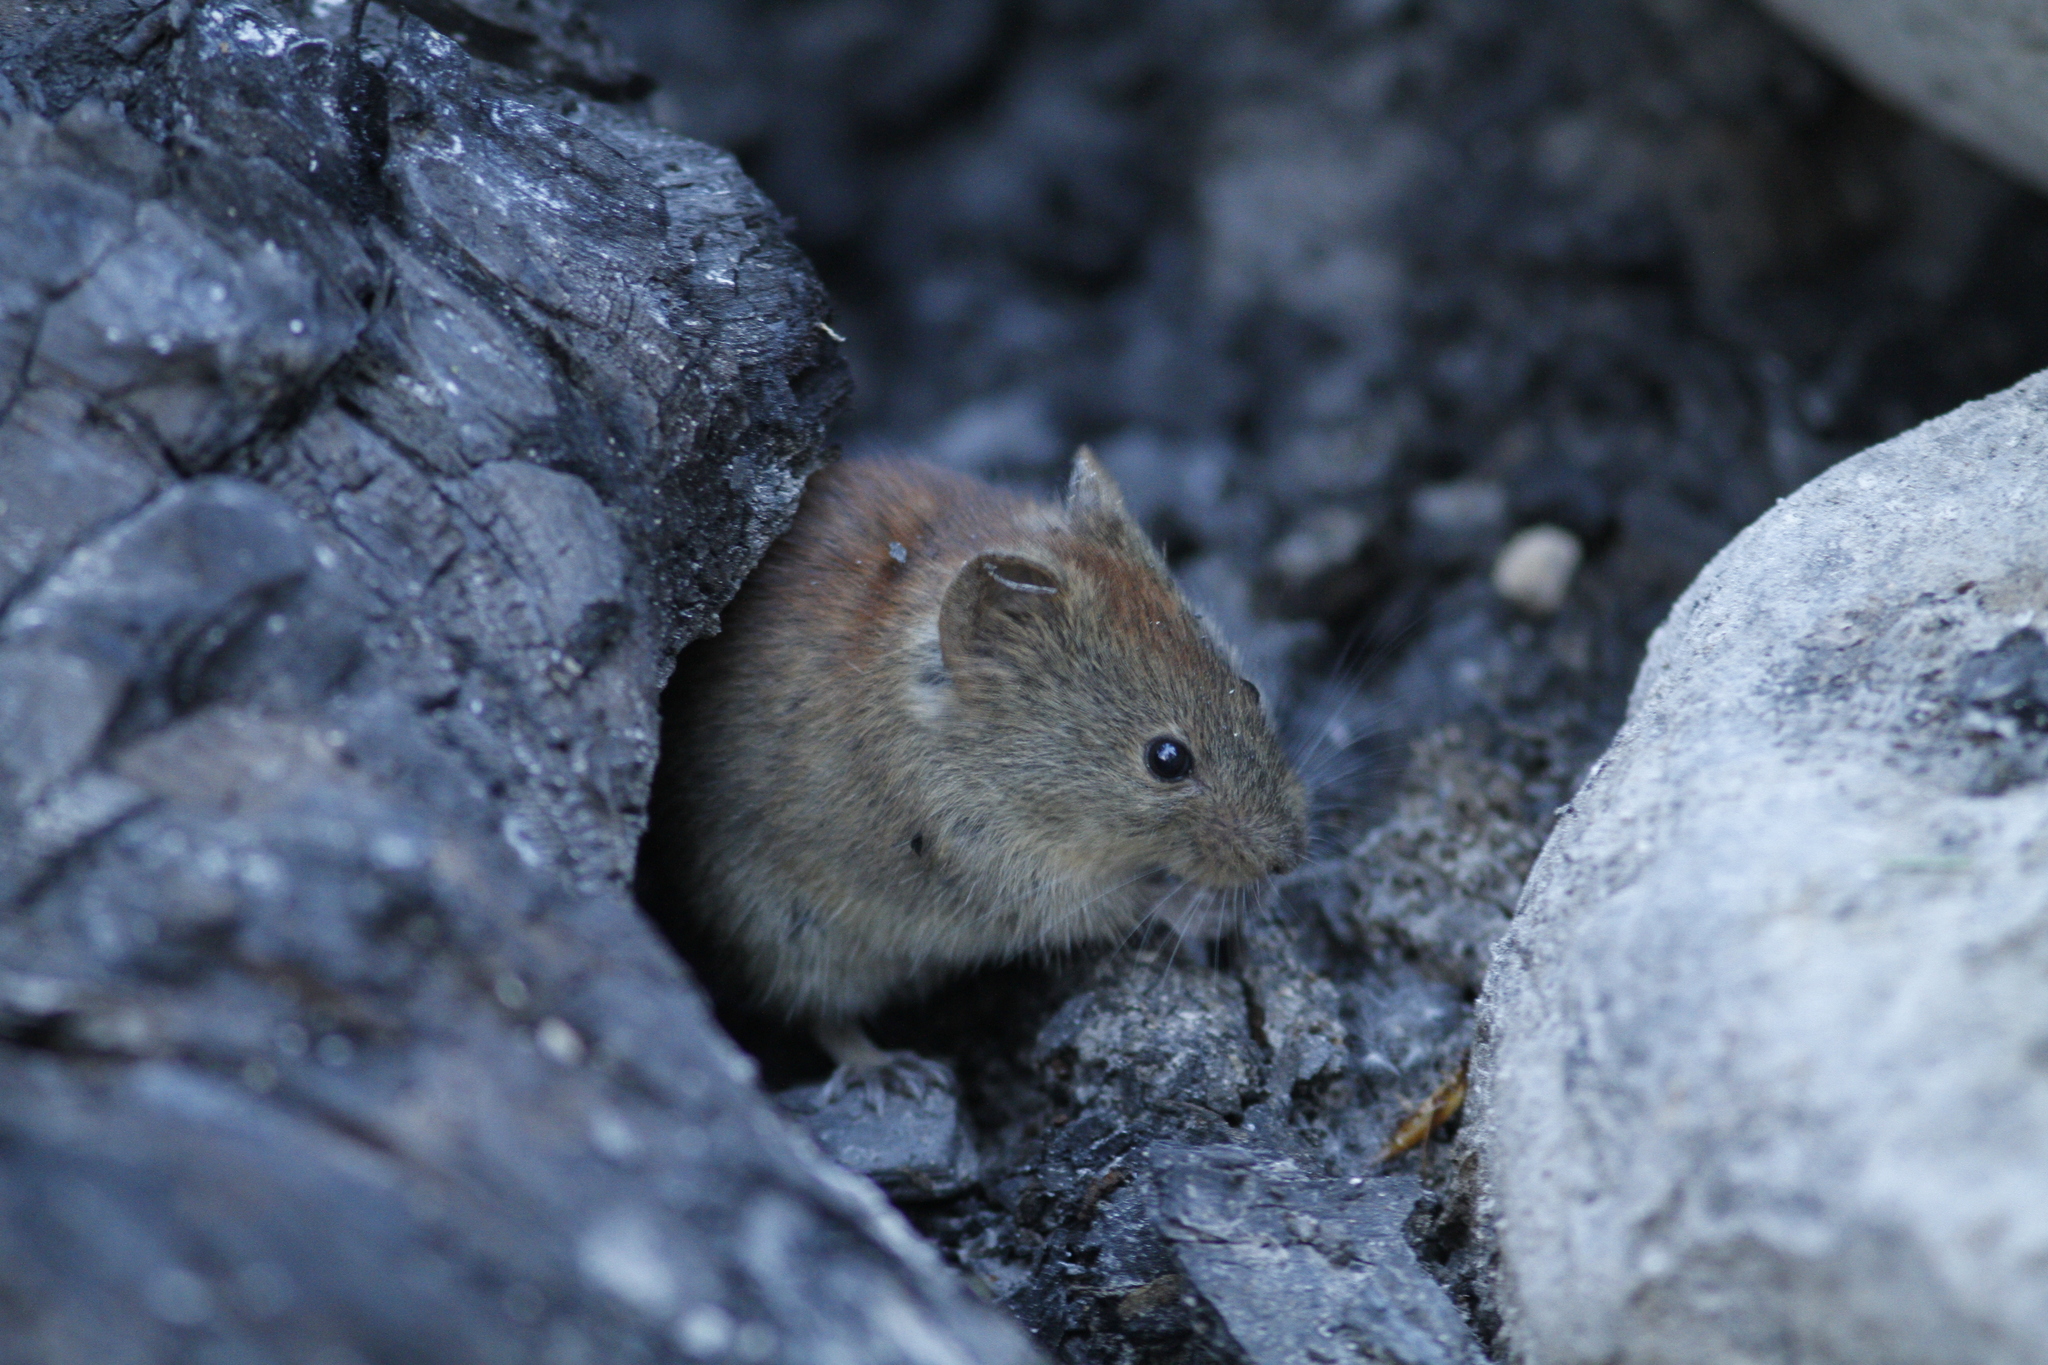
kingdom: Animalia
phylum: Chordata
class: Mammalia
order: Rodentia
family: Cricetidae
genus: Myodes
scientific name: Myodes rutilus
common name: Northern red-backed vole
